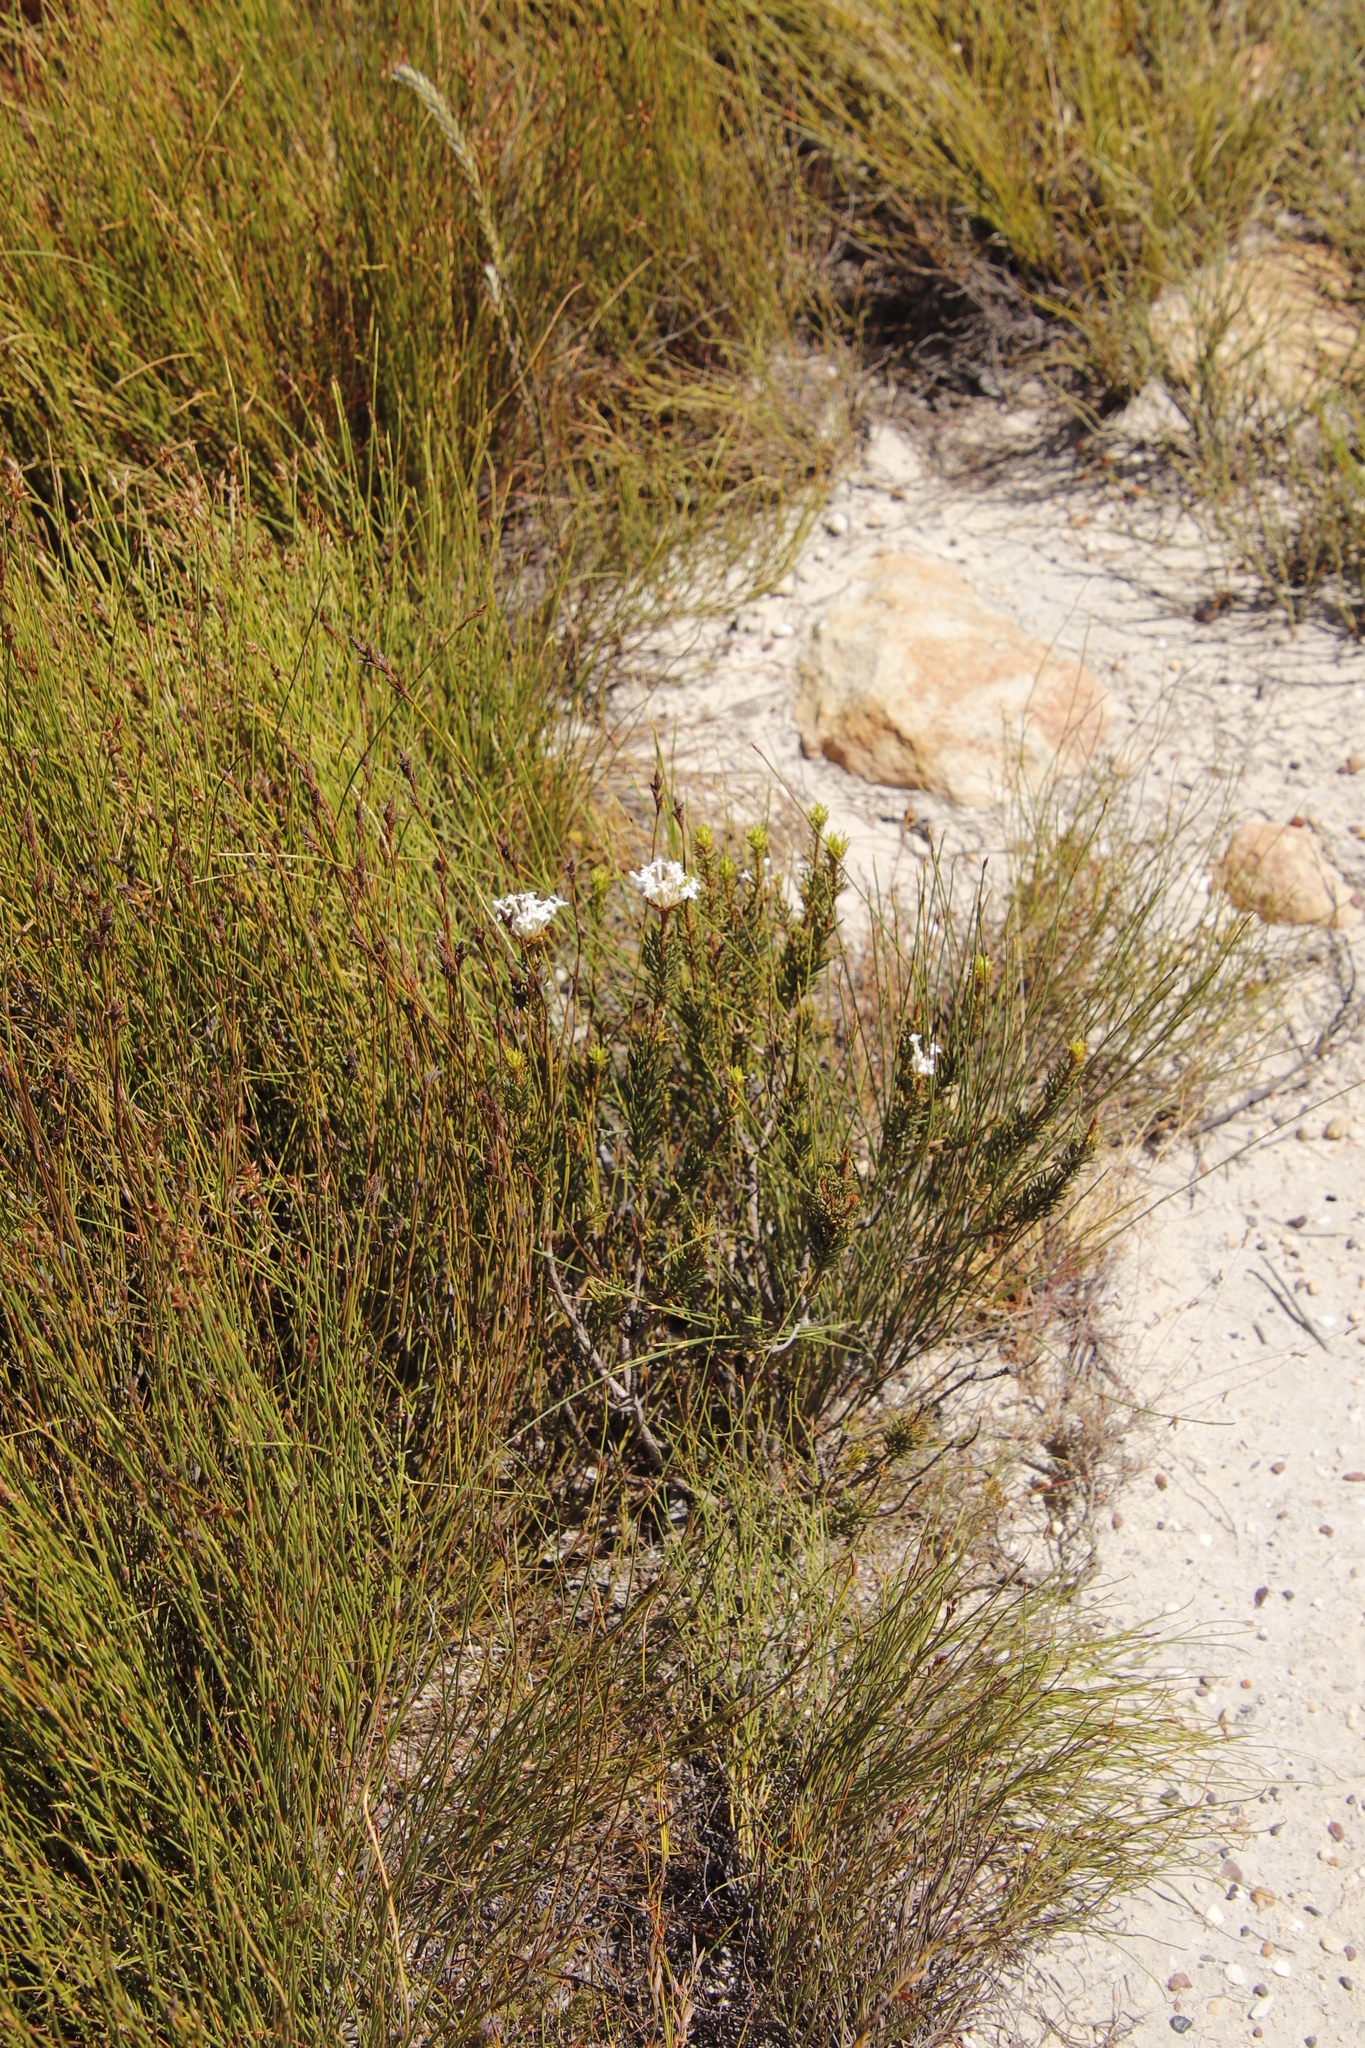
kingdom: Plantae
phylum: Tracheophyta
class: Magnoliopsida
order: Malvales
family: Thymelaeaceae
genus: Gnidia
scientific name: Gnidia pinifolia
